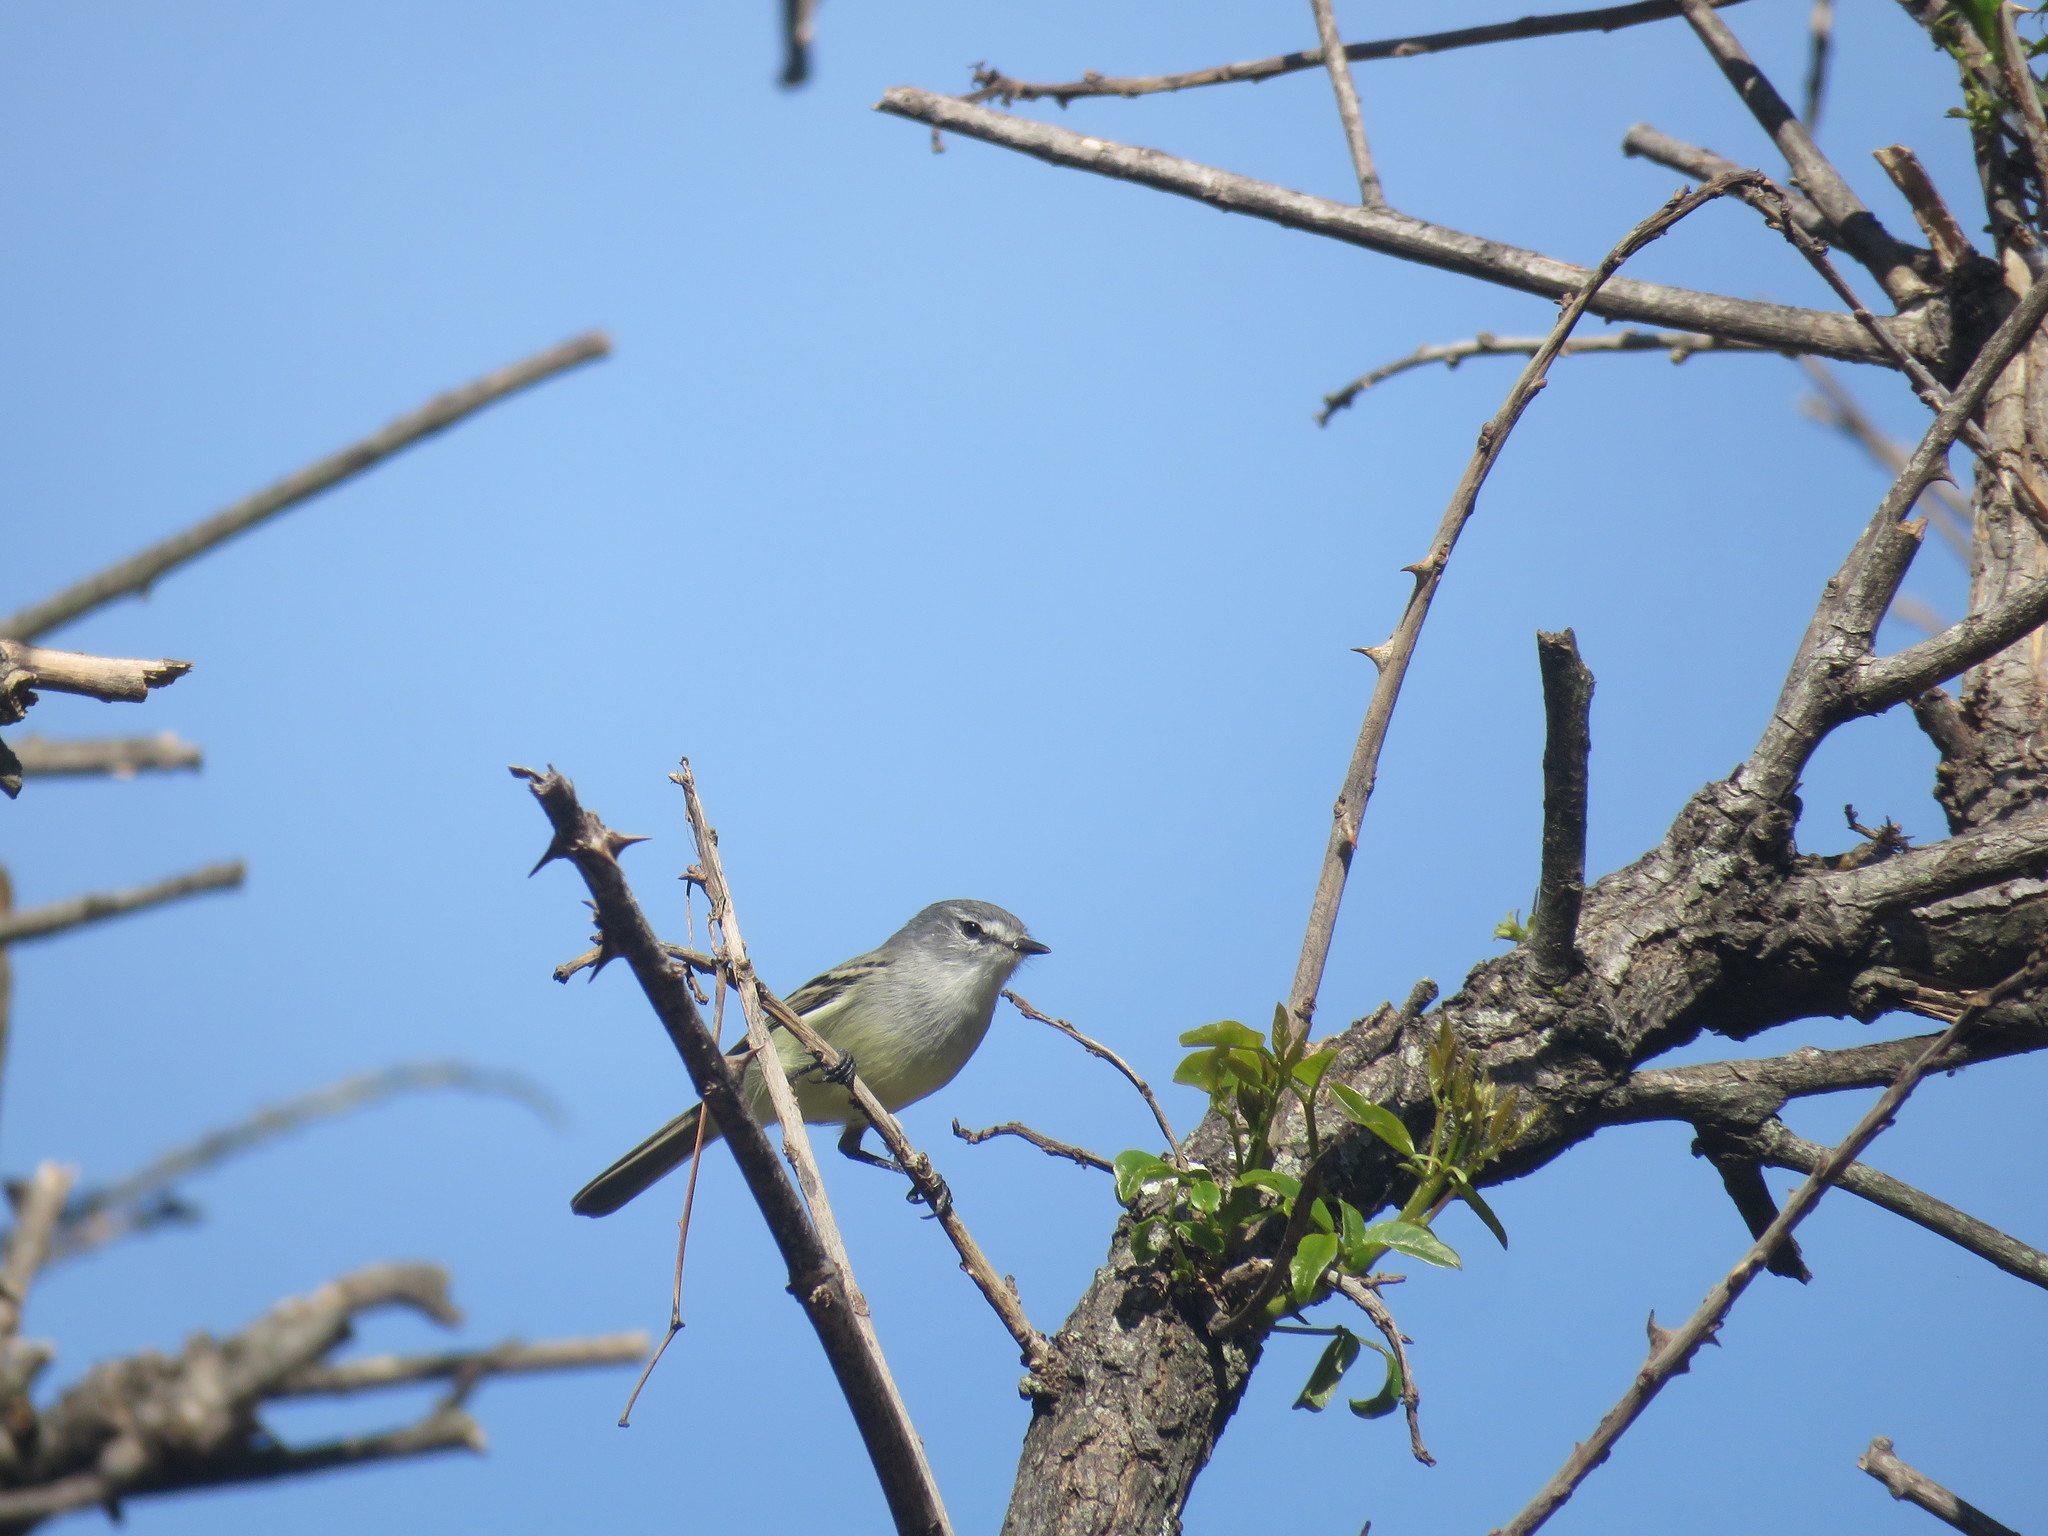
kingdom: Animalia
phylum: Chordata
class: Aves
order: Passeriformes
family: Tyrannidae
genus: Serpophaga
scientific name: Serpophaga subcristata
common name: White-crested tyrannulet
